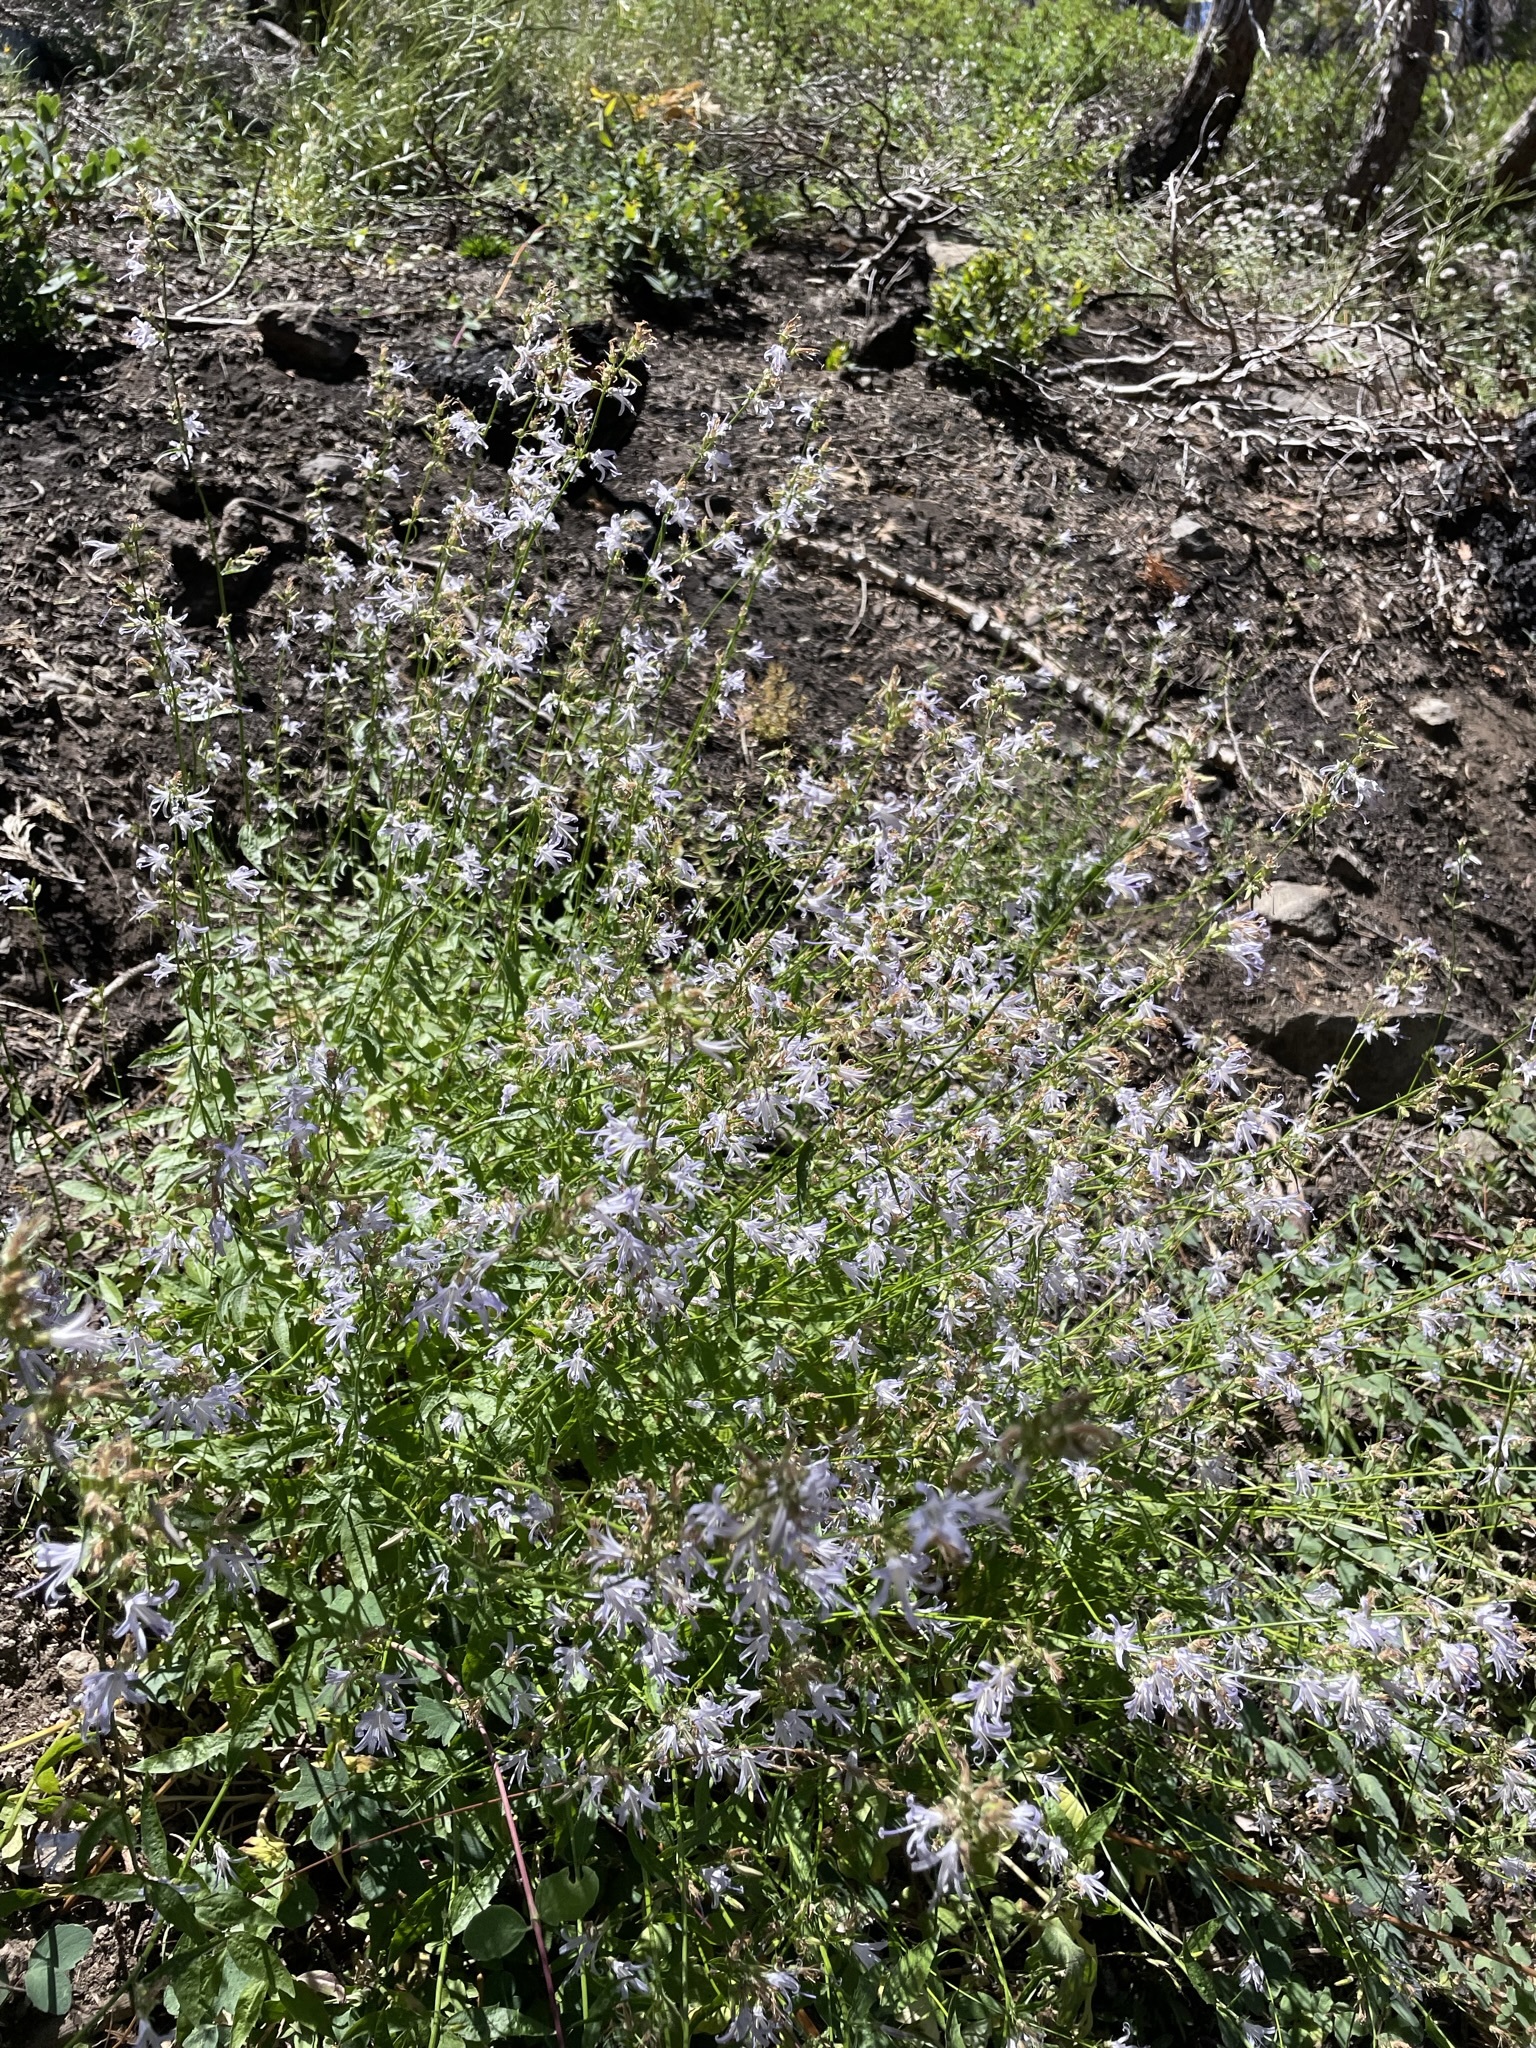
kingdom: Plantae
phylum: Tracheophyta
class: Magnoliopsida
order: Asterales
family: Campanulaceae
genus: Smithiastrum
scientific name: Smithiastrum prenanthoides
